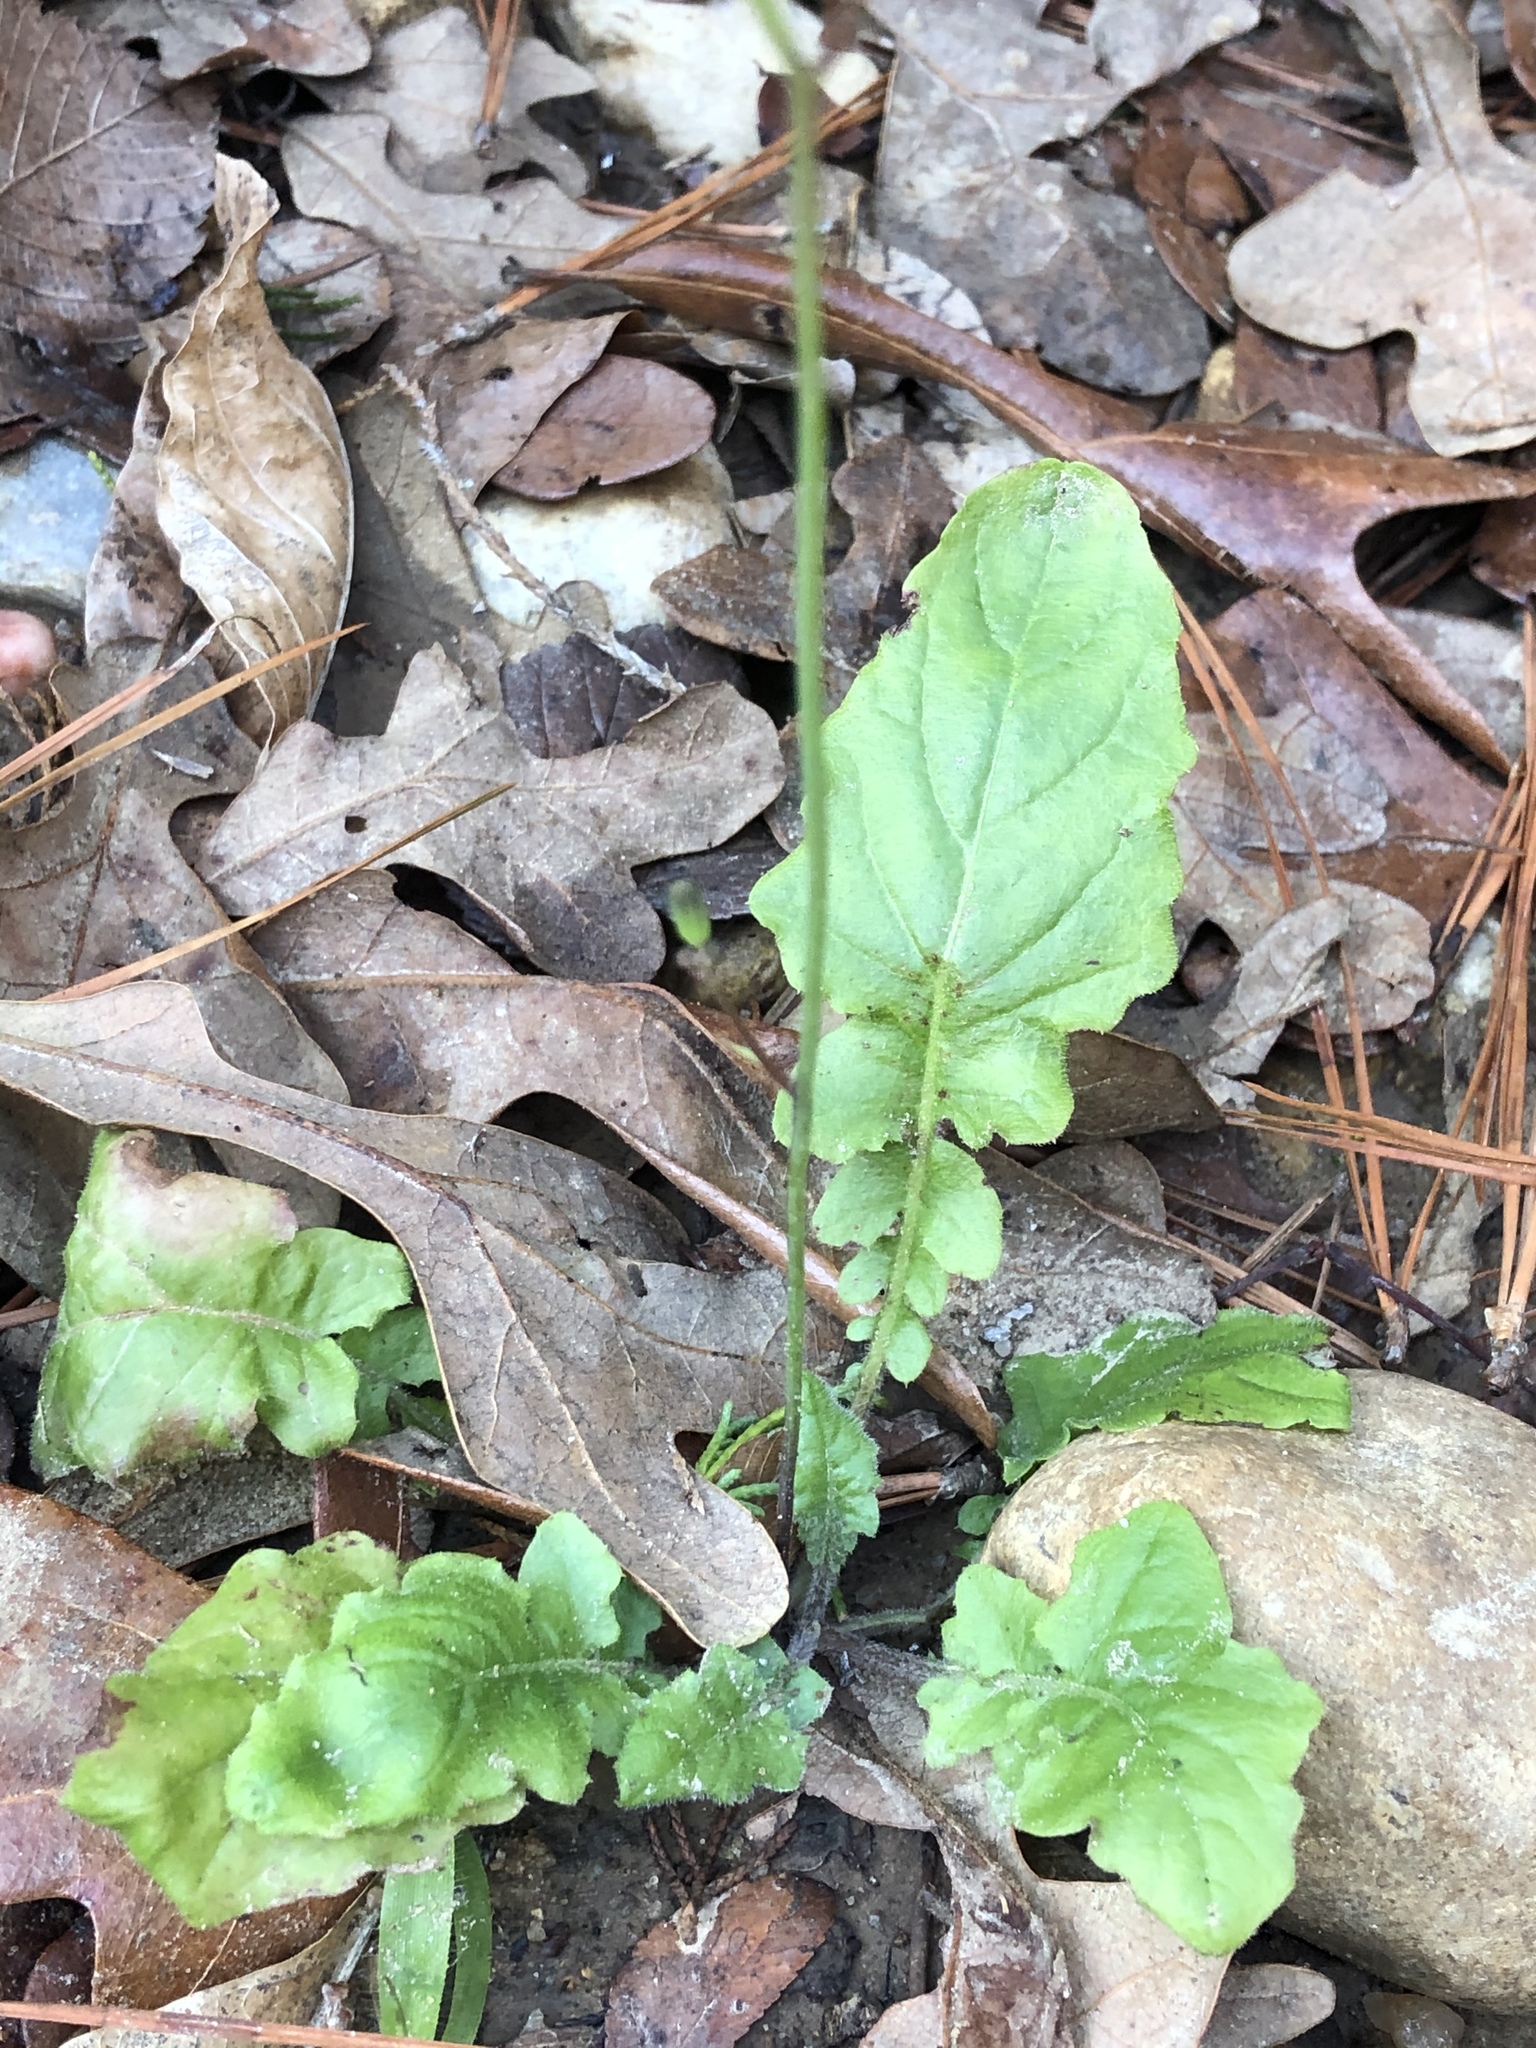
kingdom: Plantae
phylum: Tracheophyta
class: Magnoliopsida
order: Asterales
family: Asteraceae
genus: Youngia
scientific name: Youngia japonica
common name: Oriental false hawksbeard
